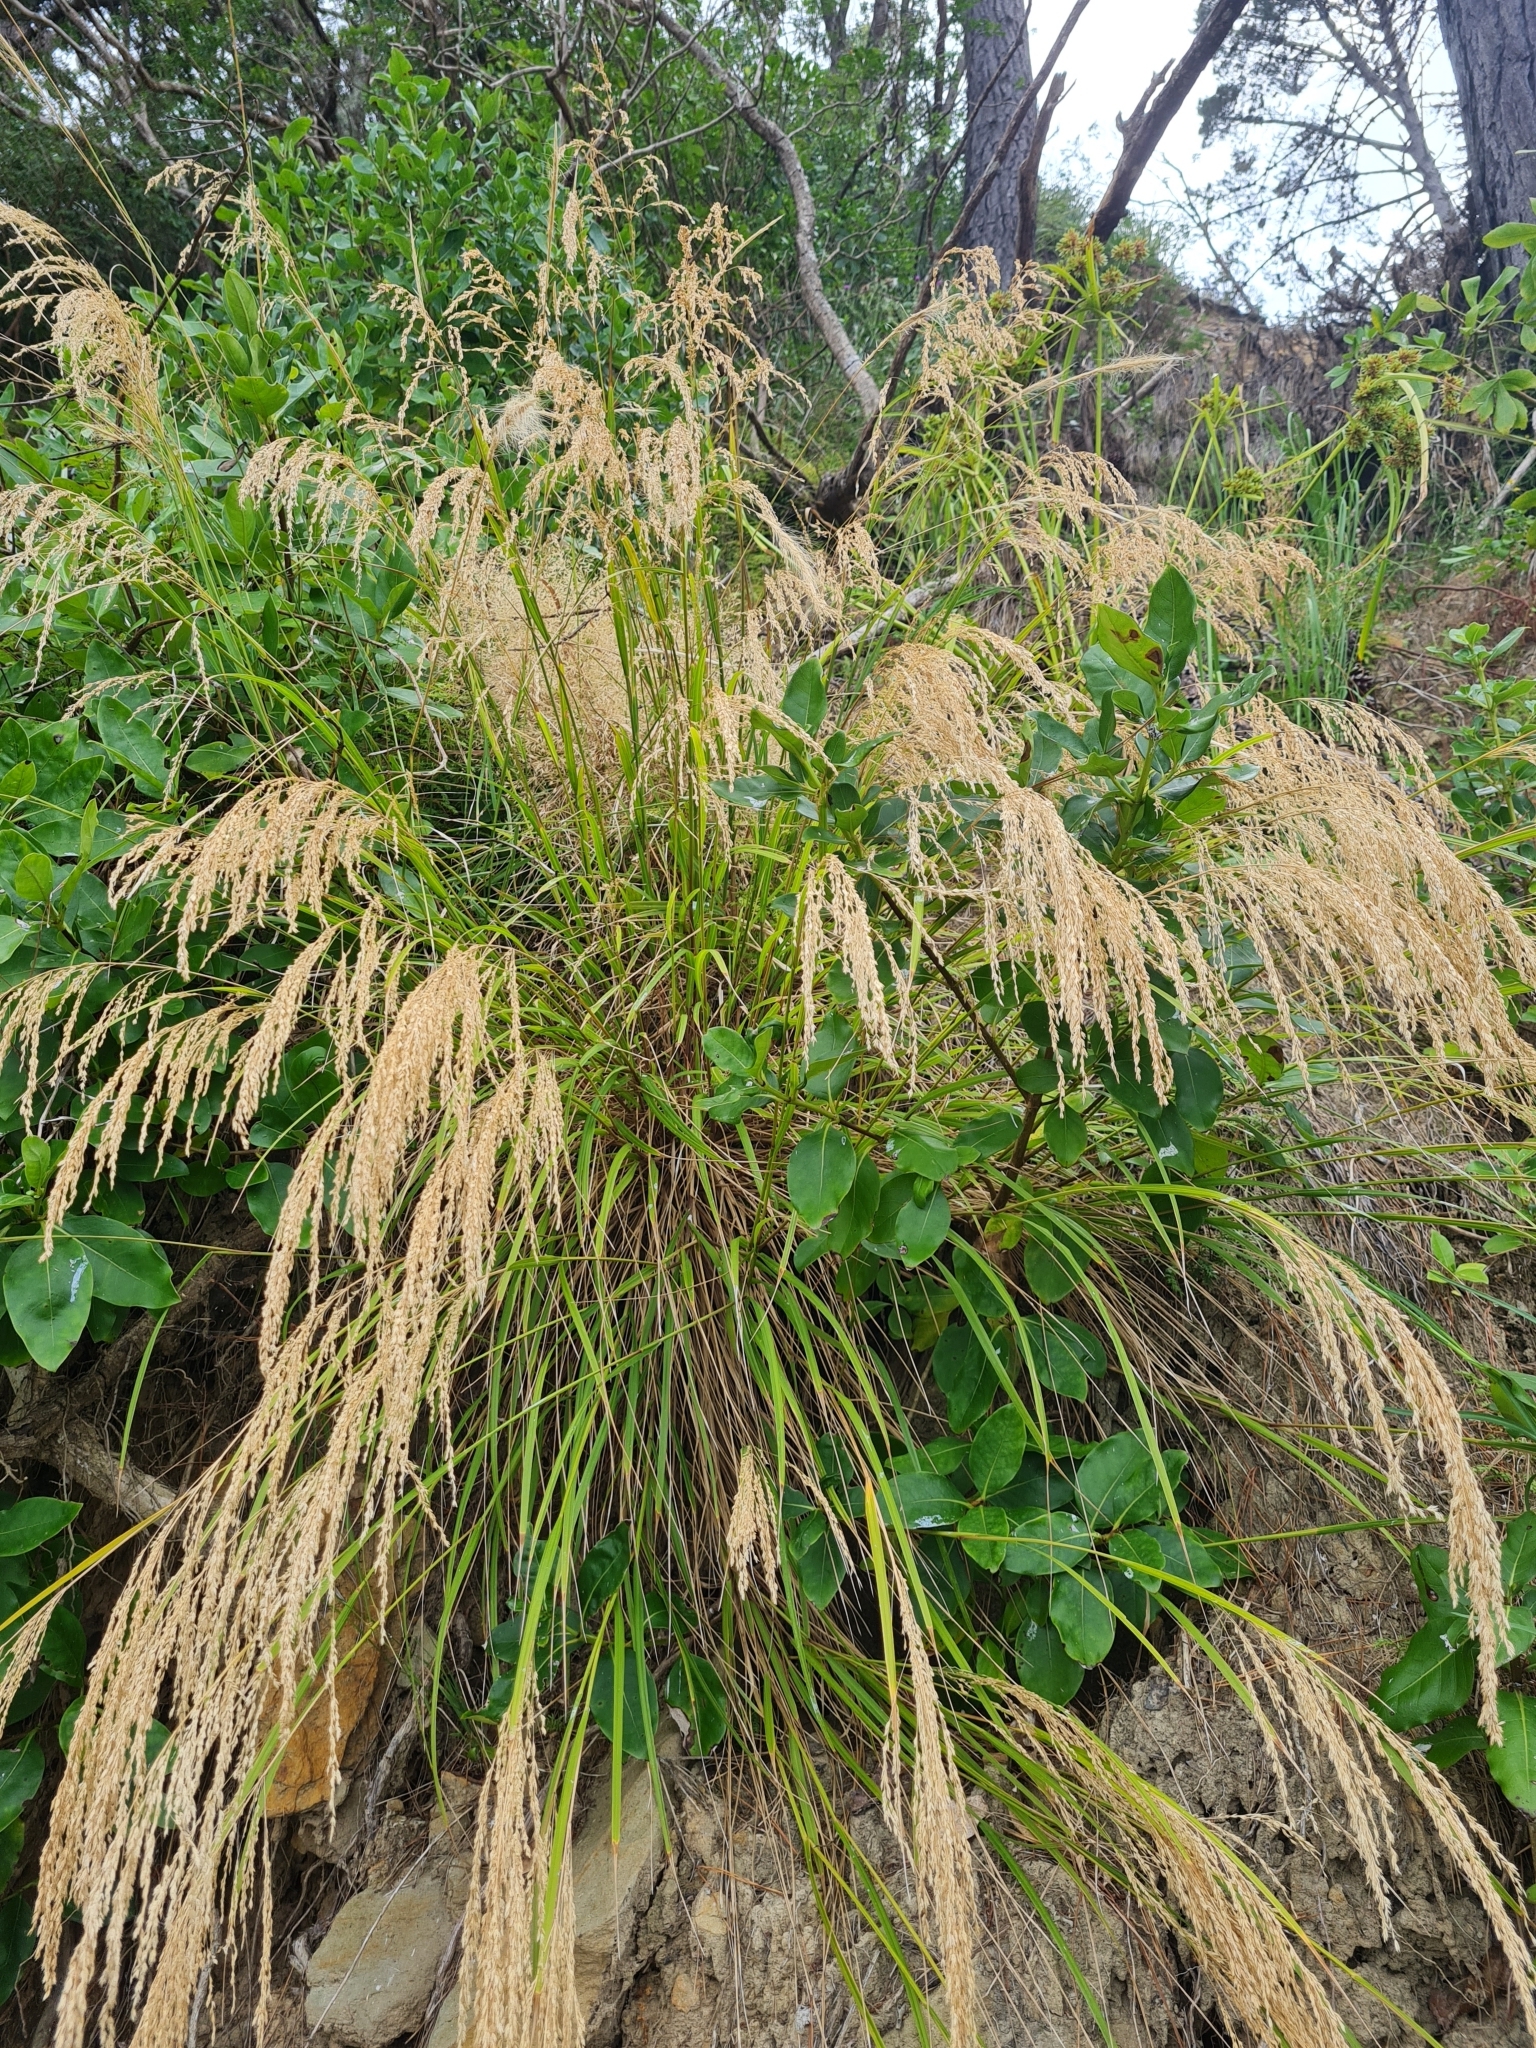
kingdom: Plantae
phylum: Tracheophyta
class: Liliopsida
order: Poales
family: Poaceae
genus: Poa
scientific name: Poa anceps
